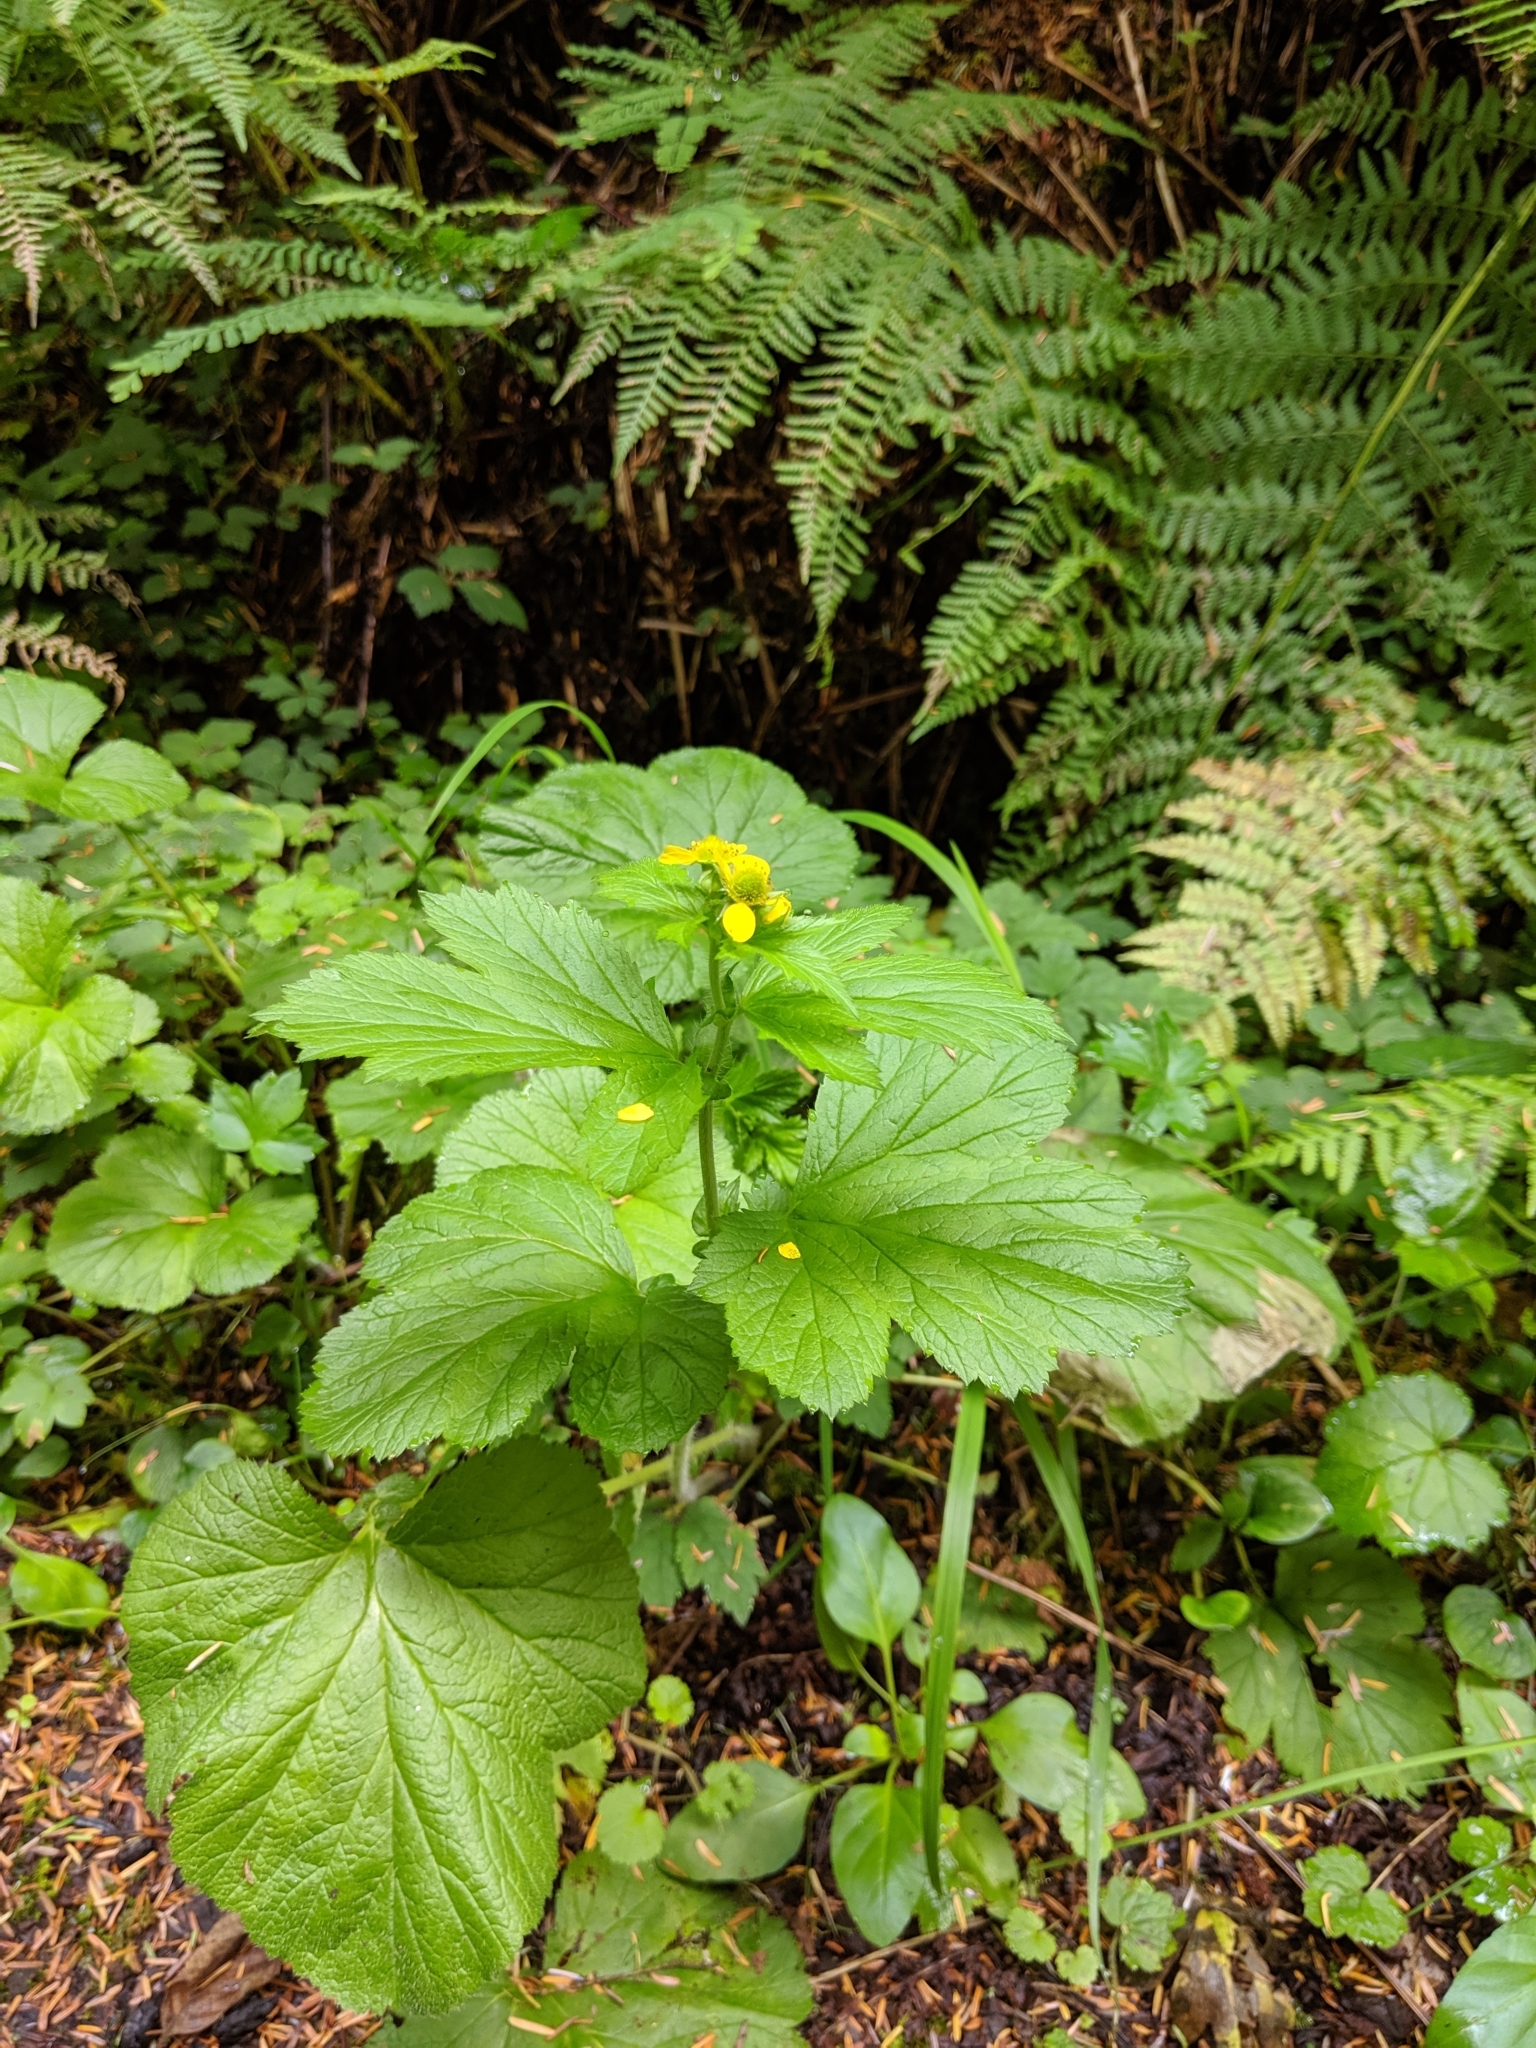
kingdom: Plantae
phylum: Tracheophyta
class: Magnoliopsida
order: Rosales
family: Rosaceae
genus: Geum
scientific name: Geum macrophyllum
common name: Large-leaved avens
